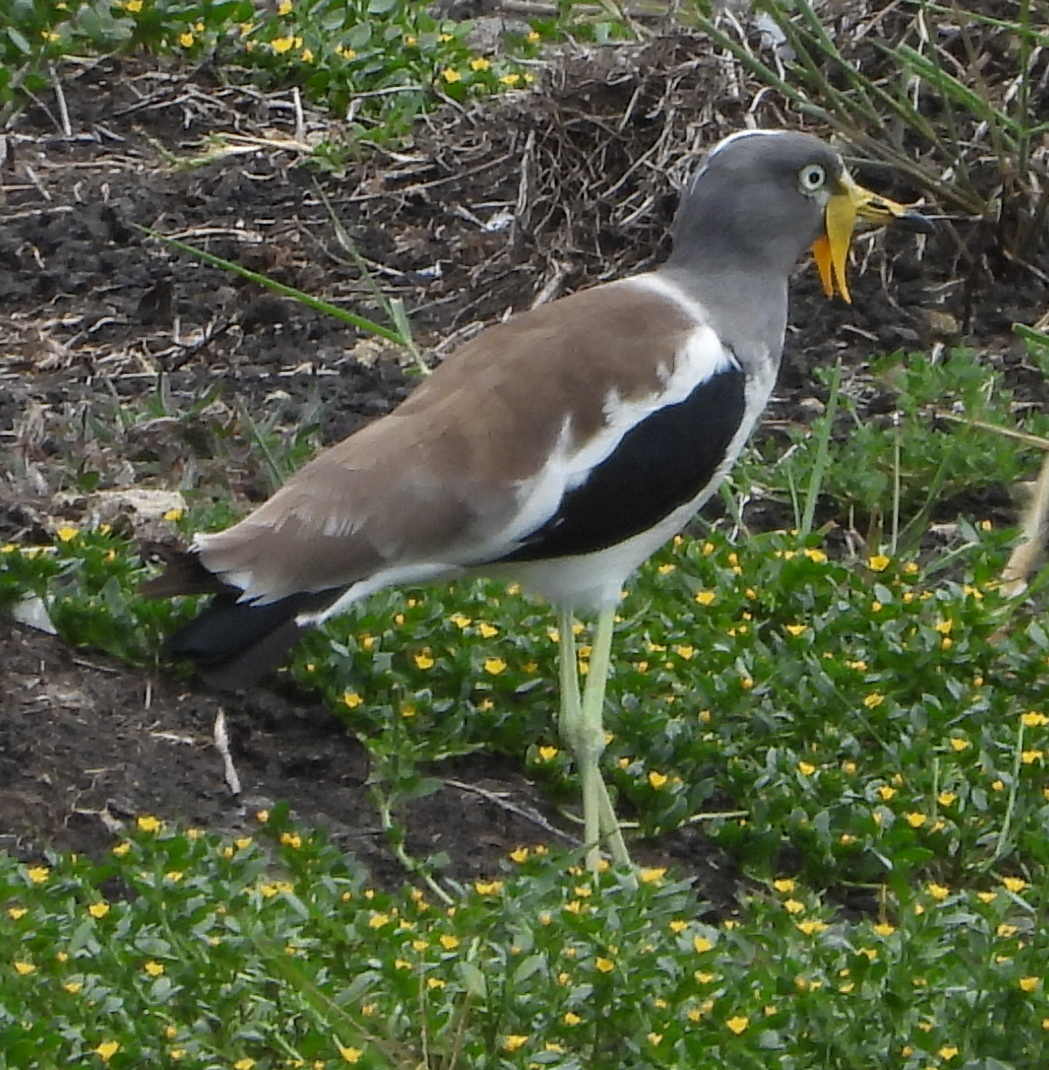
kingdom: Animalia
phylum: Chordata
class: Aves
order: Charadriiformes
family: Charadriidae
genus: Vanellus
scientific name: Vanellus albiceps
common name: White-crowned lapwing
